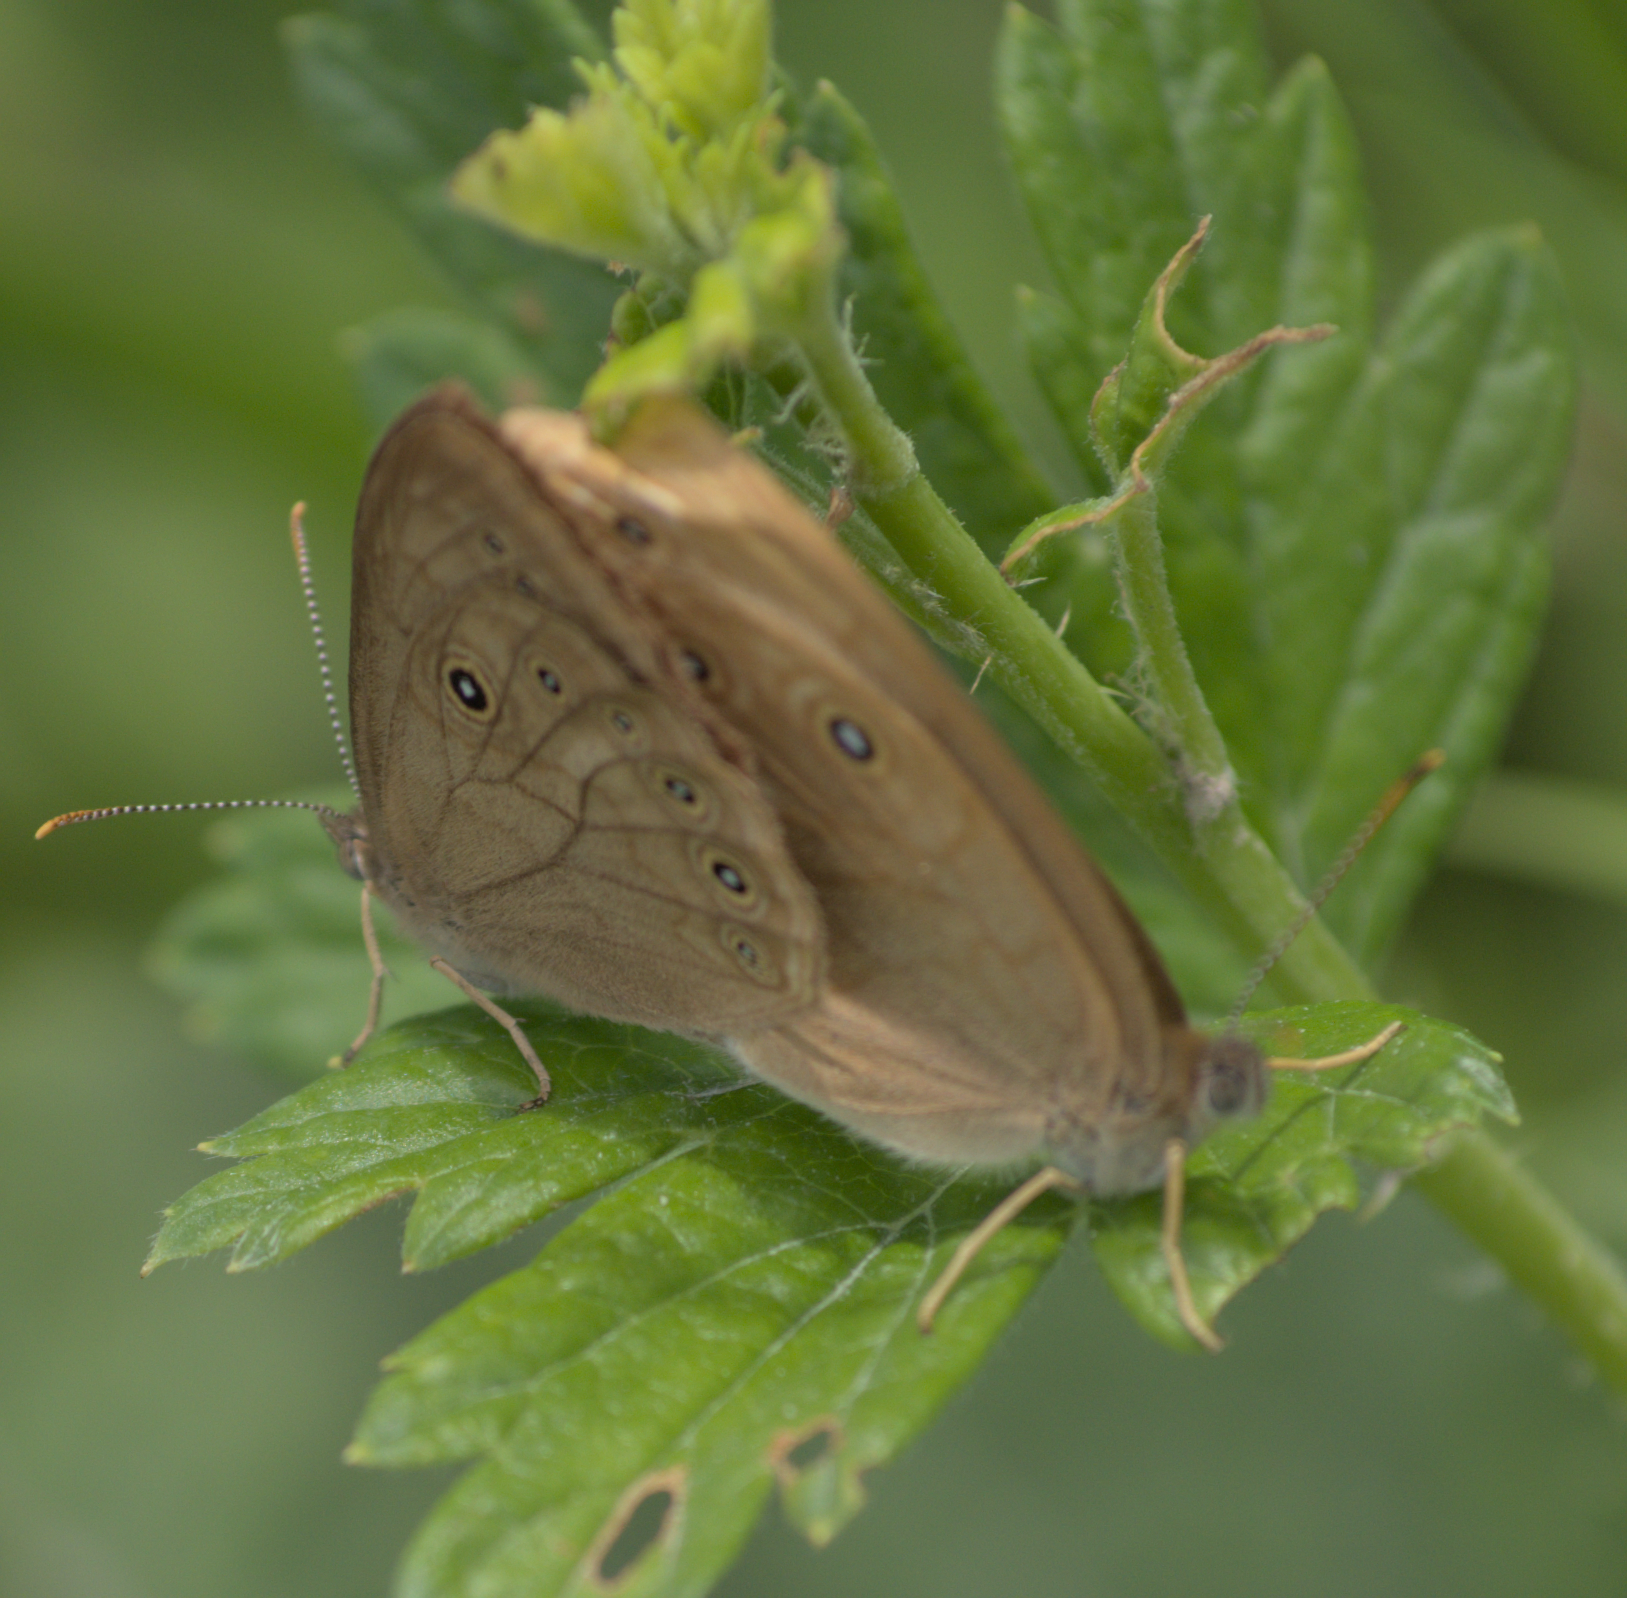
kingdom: Animalia
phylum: Arthropoda
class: Insecta
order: Lepidoptera
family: Nymphalidae
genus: Lethe
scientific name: Lethe eurydice
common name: Eyed brown
